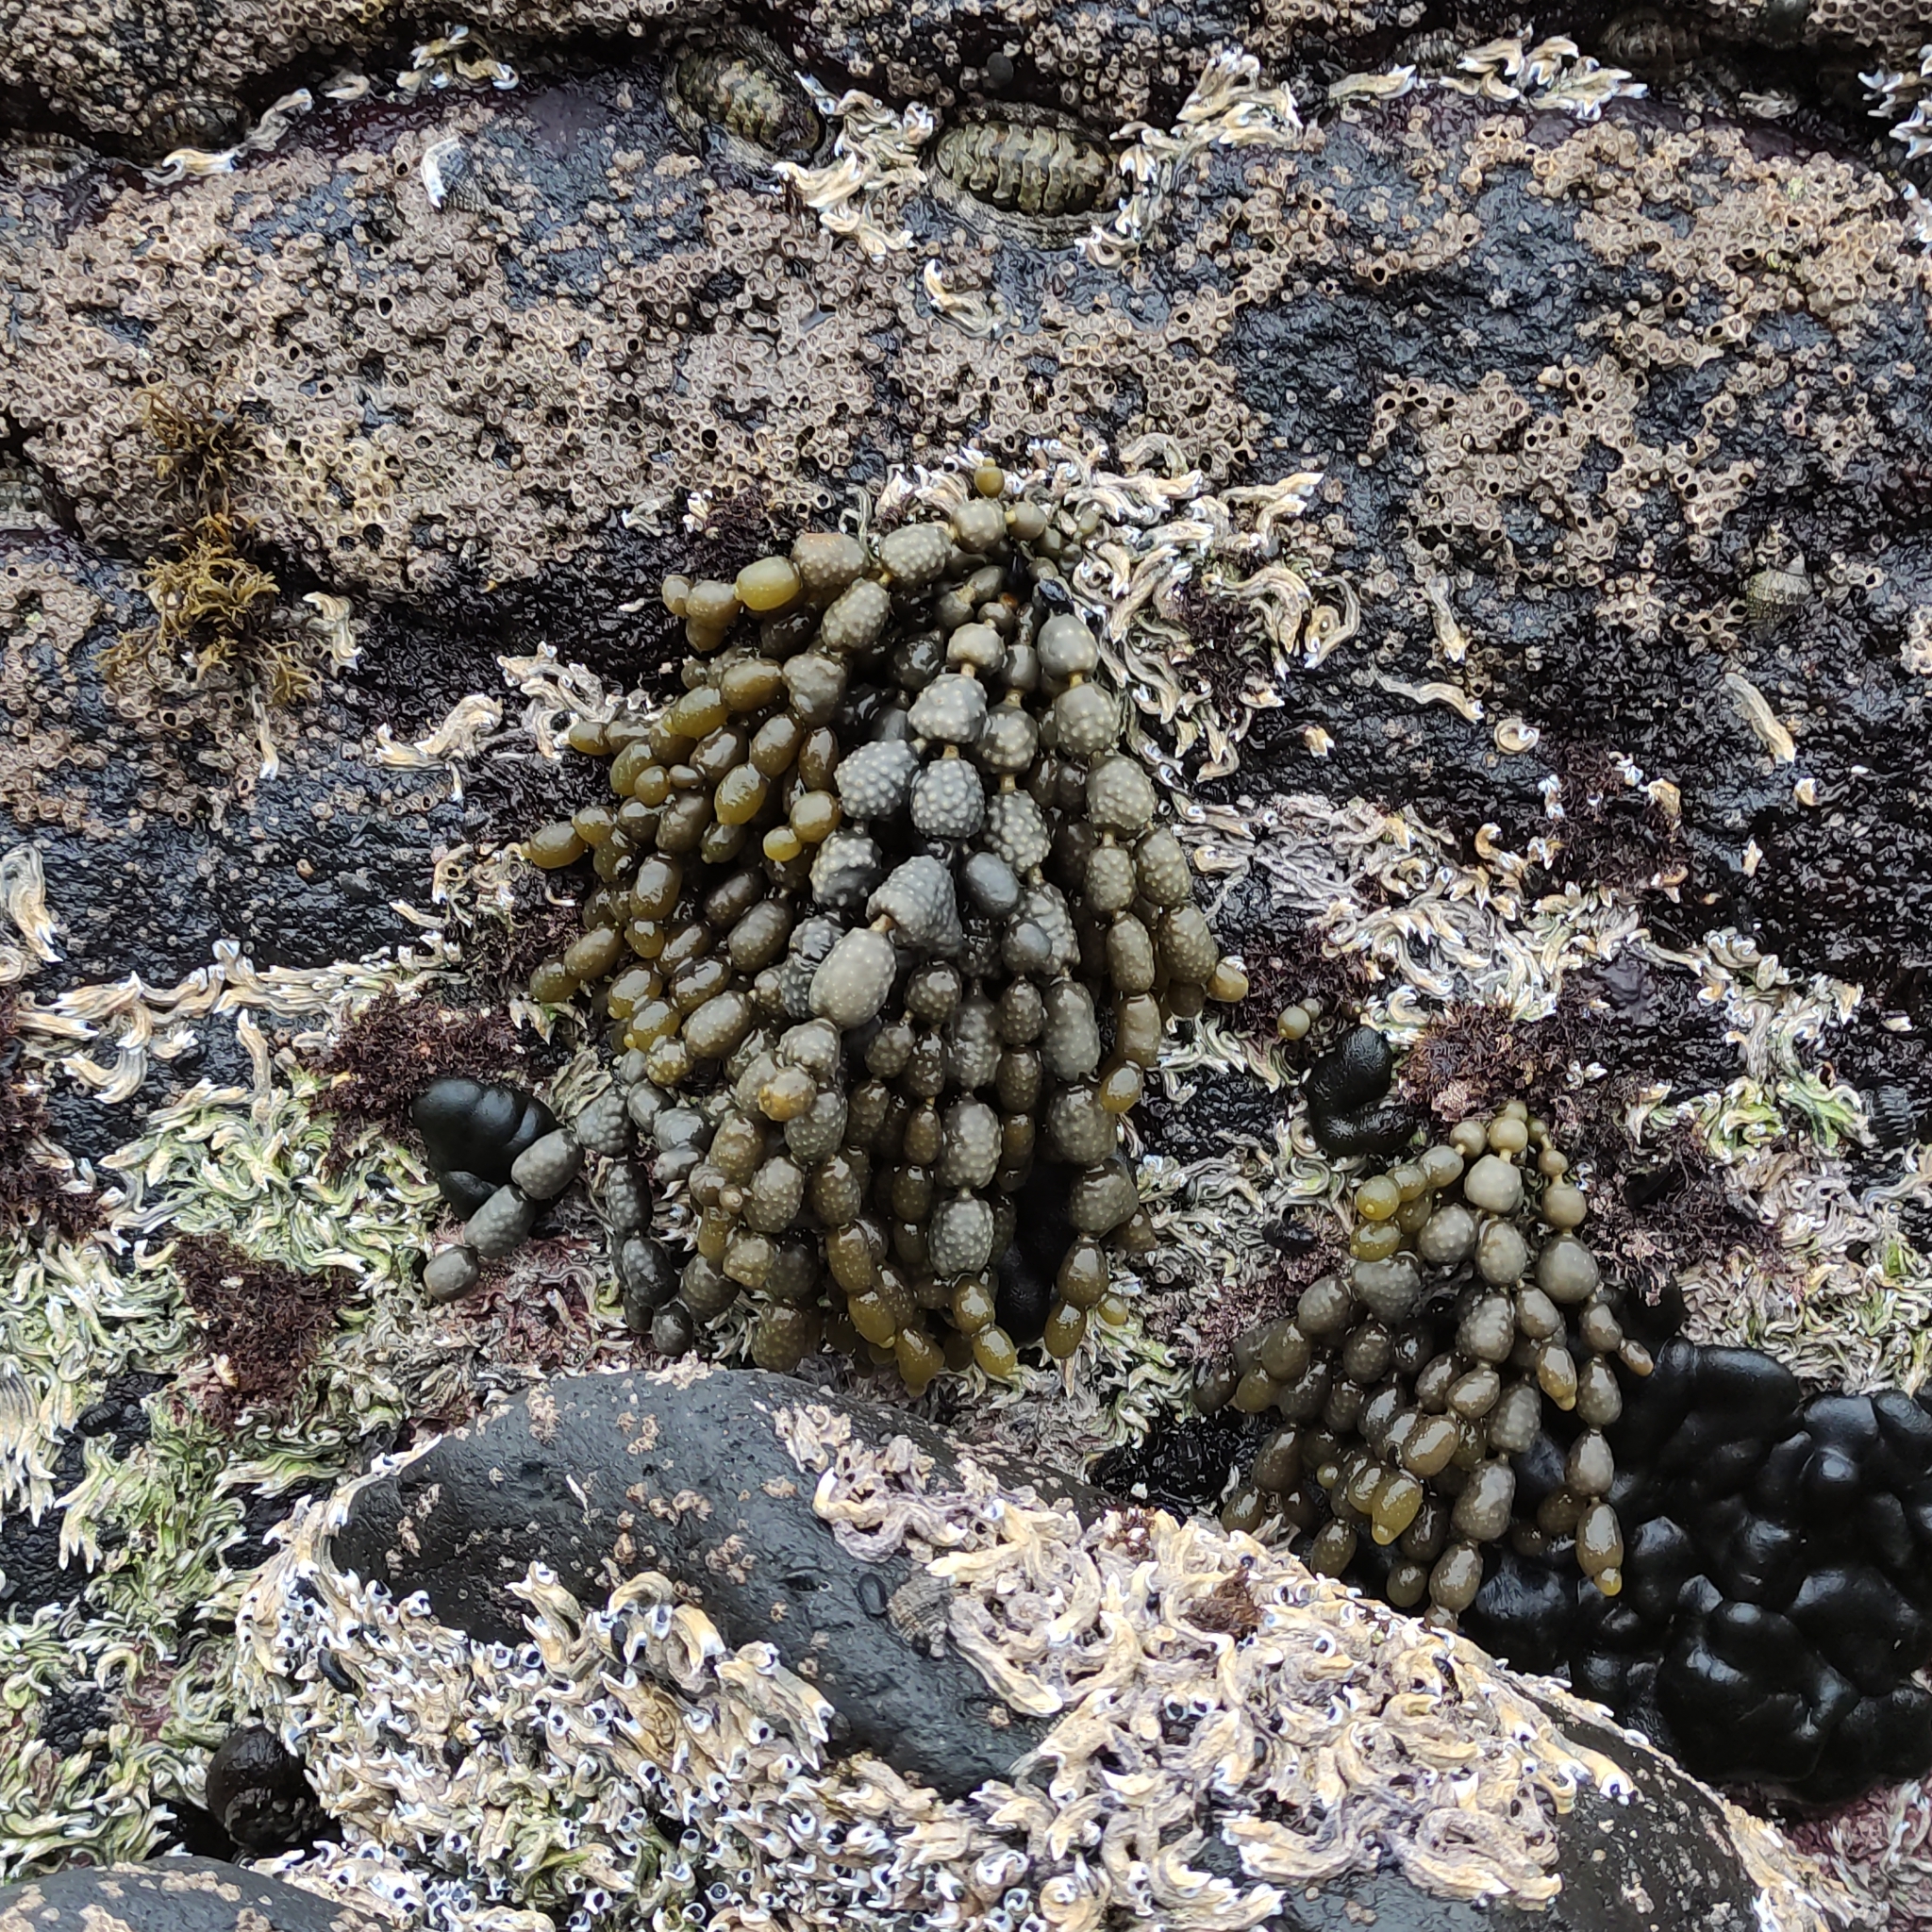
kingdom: Chromista
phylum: Ochrophyta
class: Phaeophyceae
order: Fucales
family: Hormosiraceae
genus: Hormosira
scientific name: Hormosira banksii
